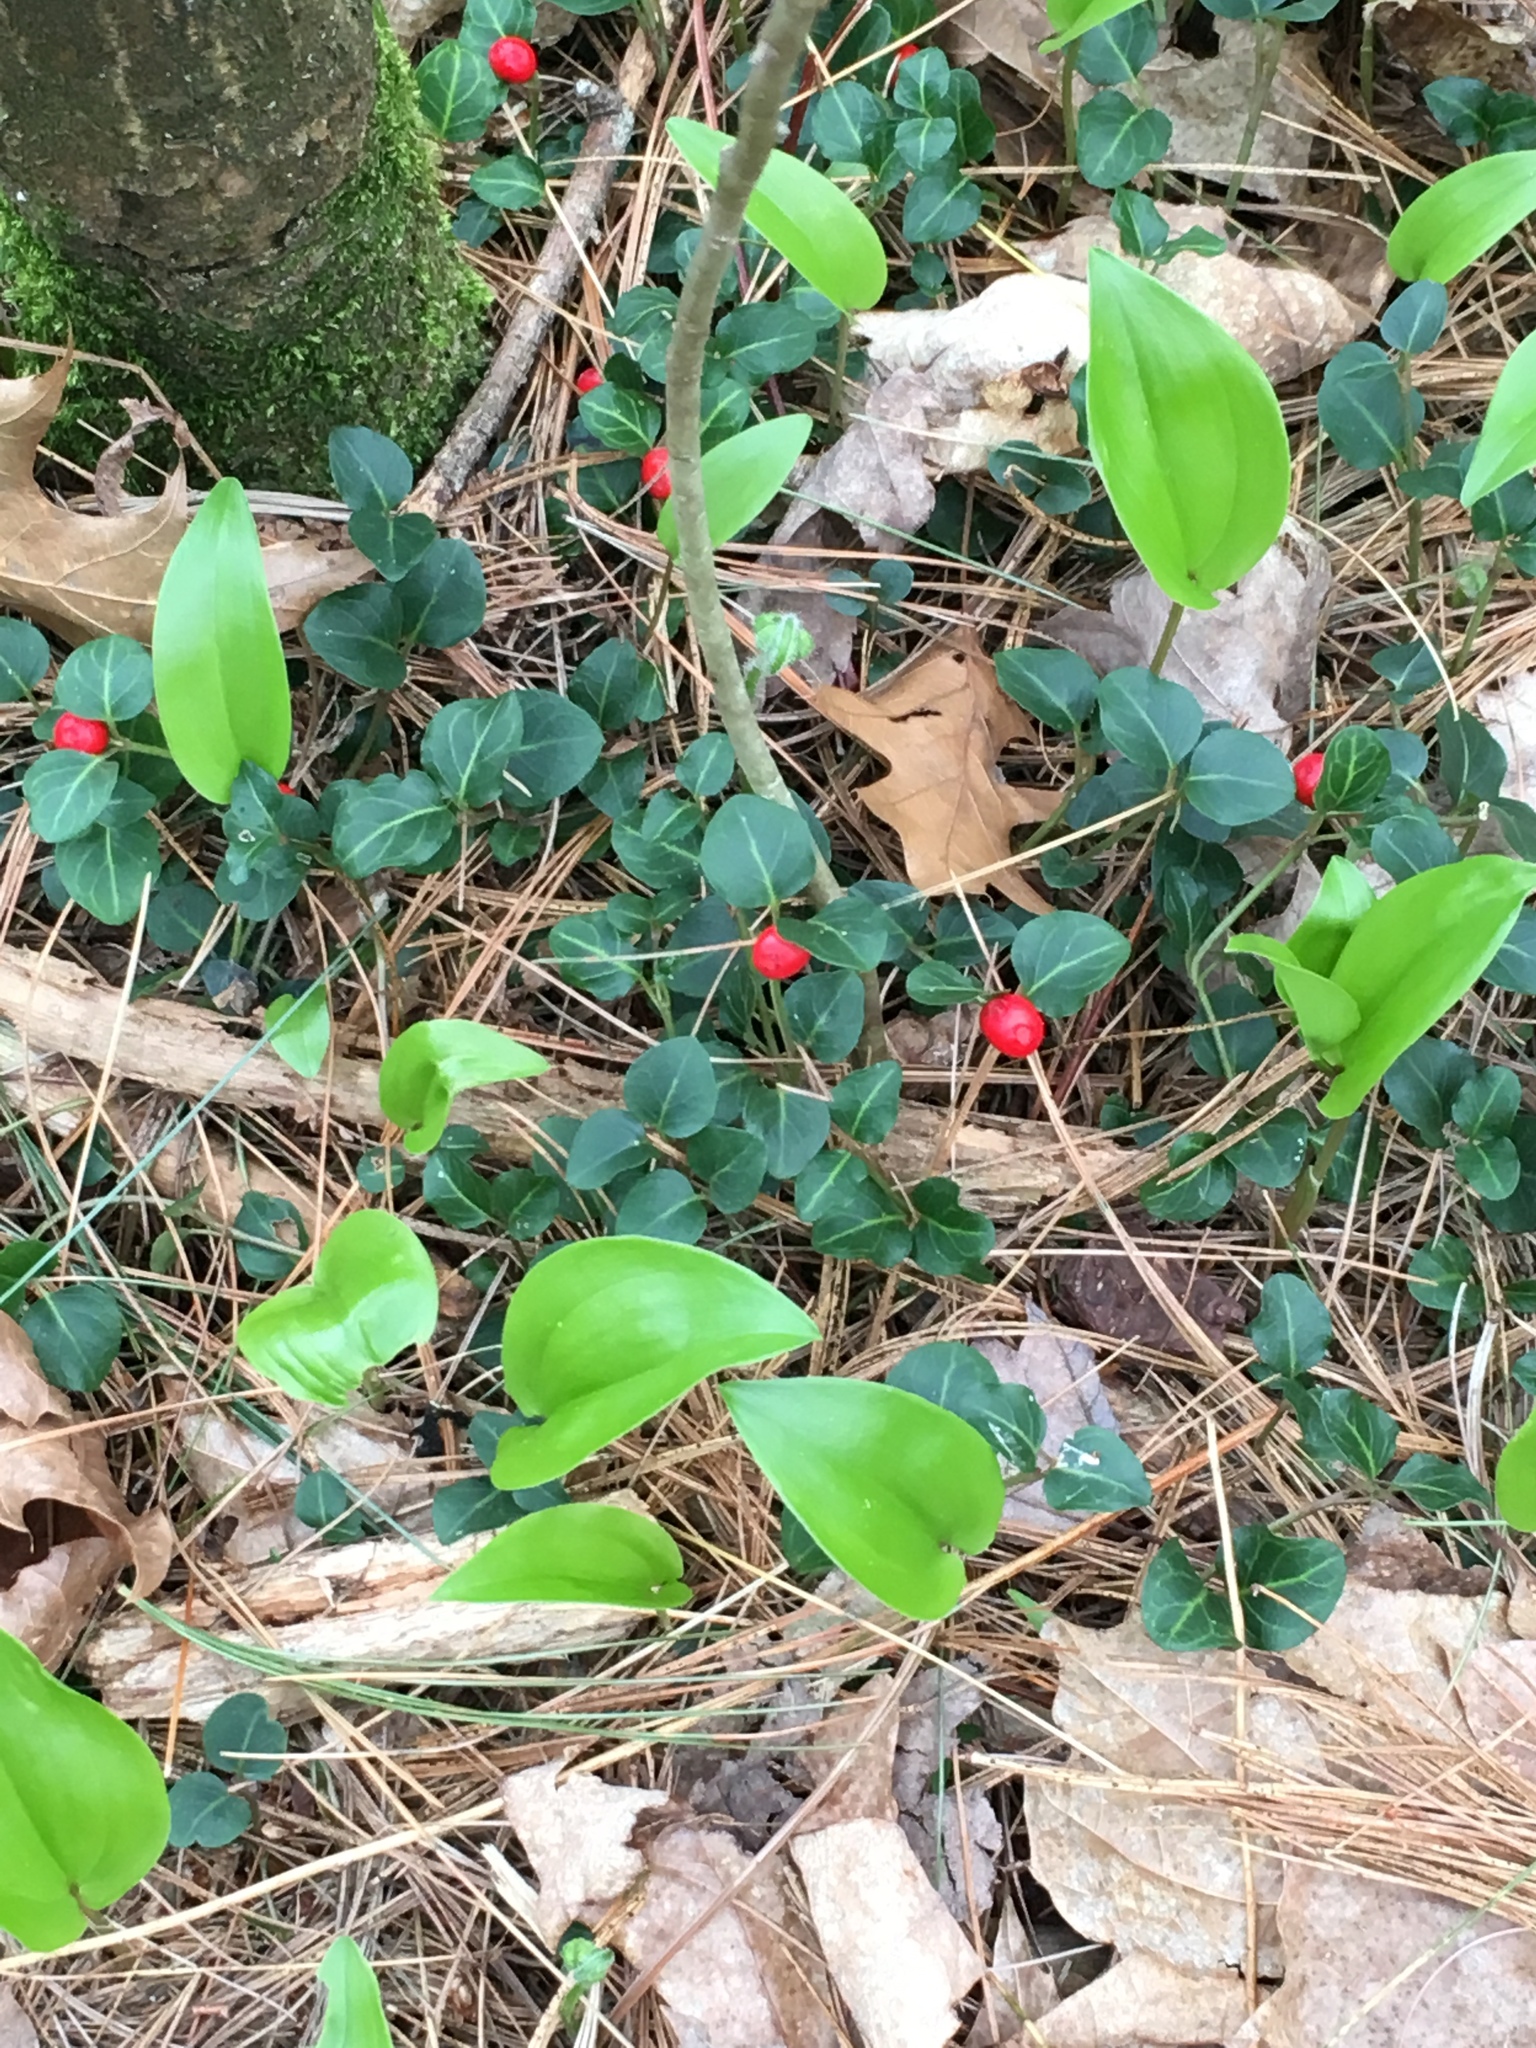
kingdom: Plantae
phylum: Tracheophyta
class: Magnoliopsida
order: Gentianales
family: Rubiaceae
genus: Mitchella
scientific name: Mitchella repens
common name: Partridge-berry
